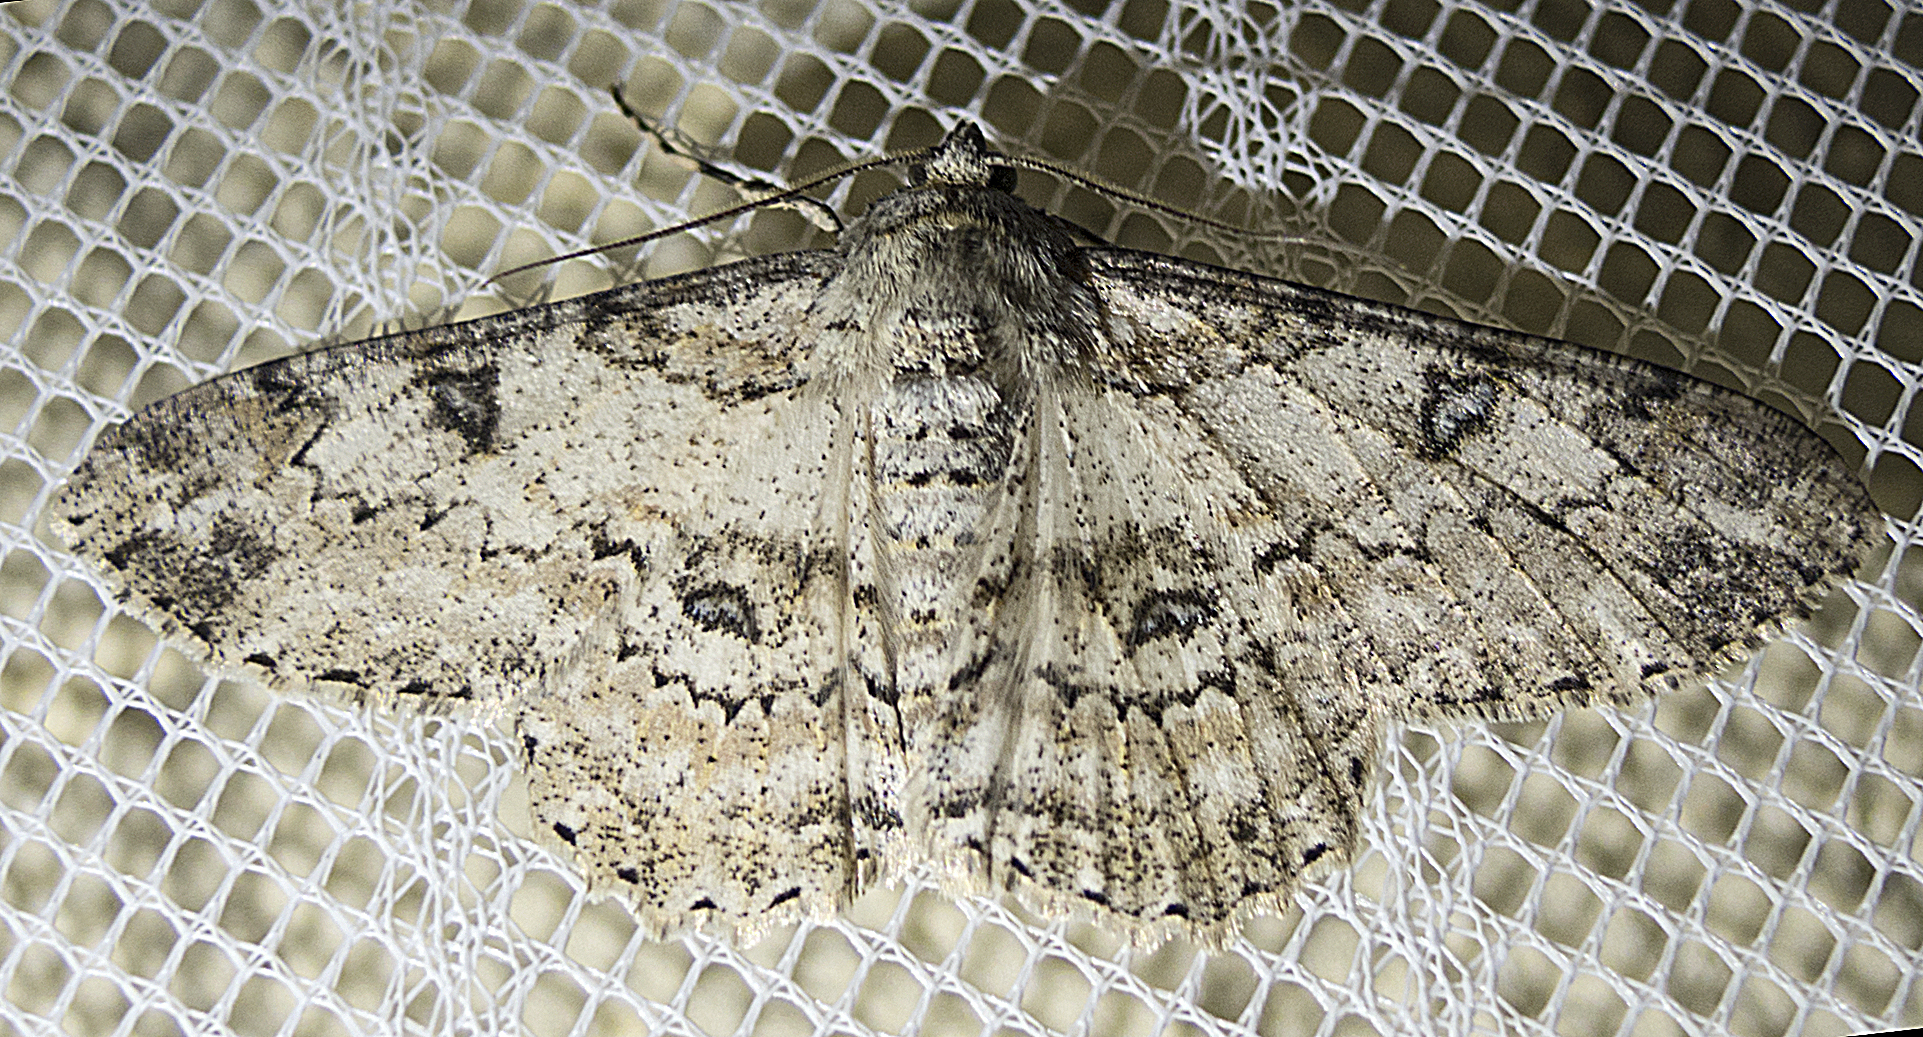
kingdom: Animalia
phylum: Arthropoda
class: Insecta
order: Lepidoptera
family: Geometridae
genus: Ascotis
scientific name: Ascotis selenaria
